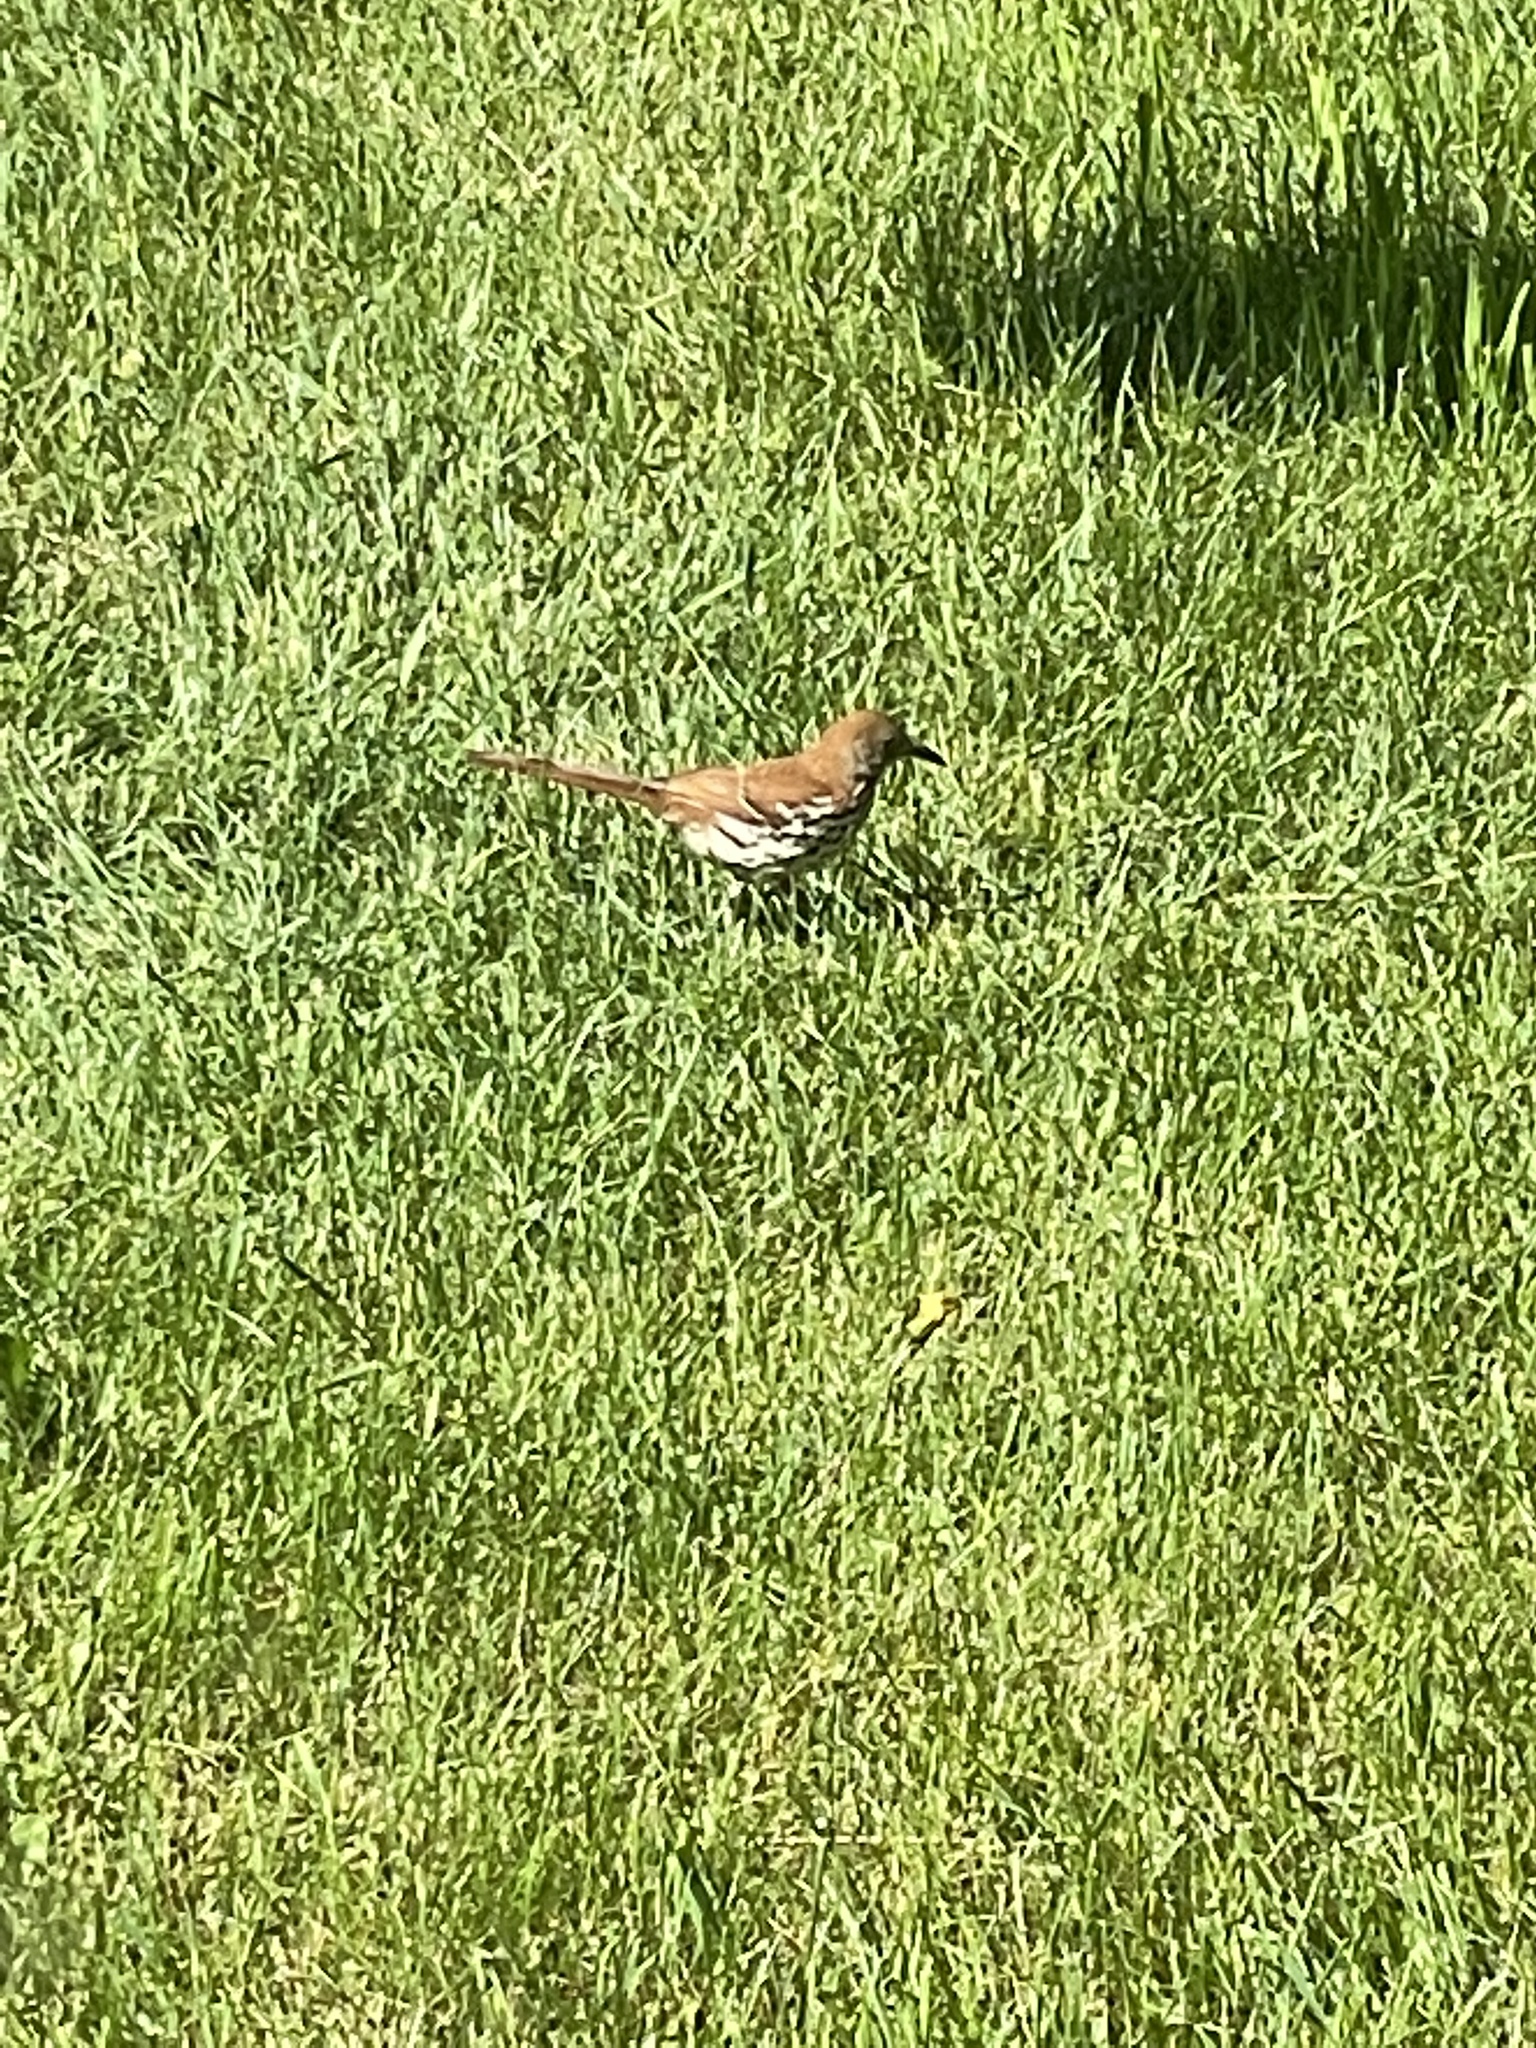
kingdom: Animalia
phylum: Chordata
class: Aves
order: Passeriformes
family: Mimidae
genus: Toxostoma
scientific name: Toxostoma rufum
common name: Brown thrasher
